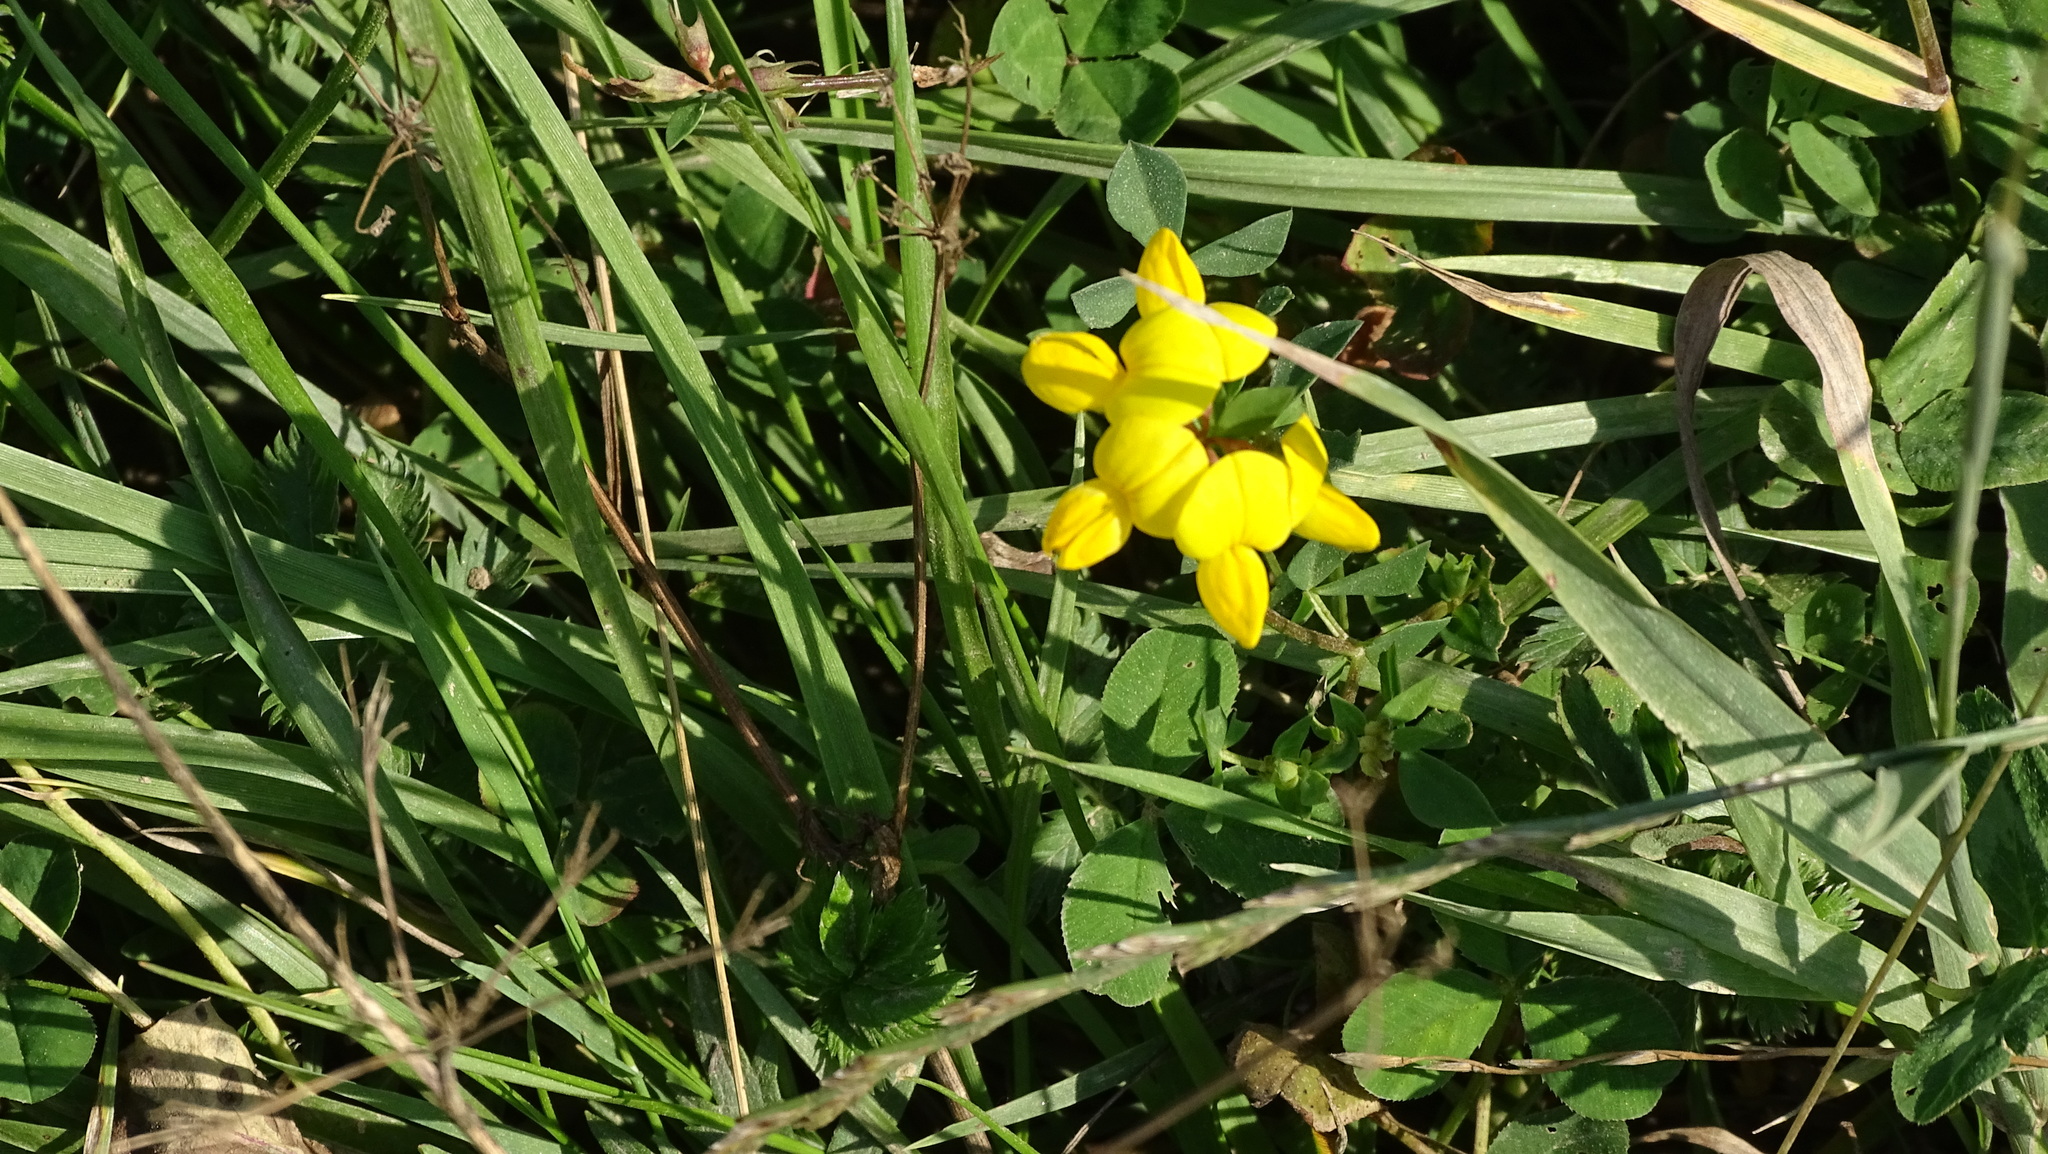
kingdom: Plantae
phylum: Tracheophyta
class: Magnoliopsida
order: Fabales
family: Fabaceae
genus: Lotus
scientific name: Lotus corniculatus
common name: Common bird's-foot-trefoil
